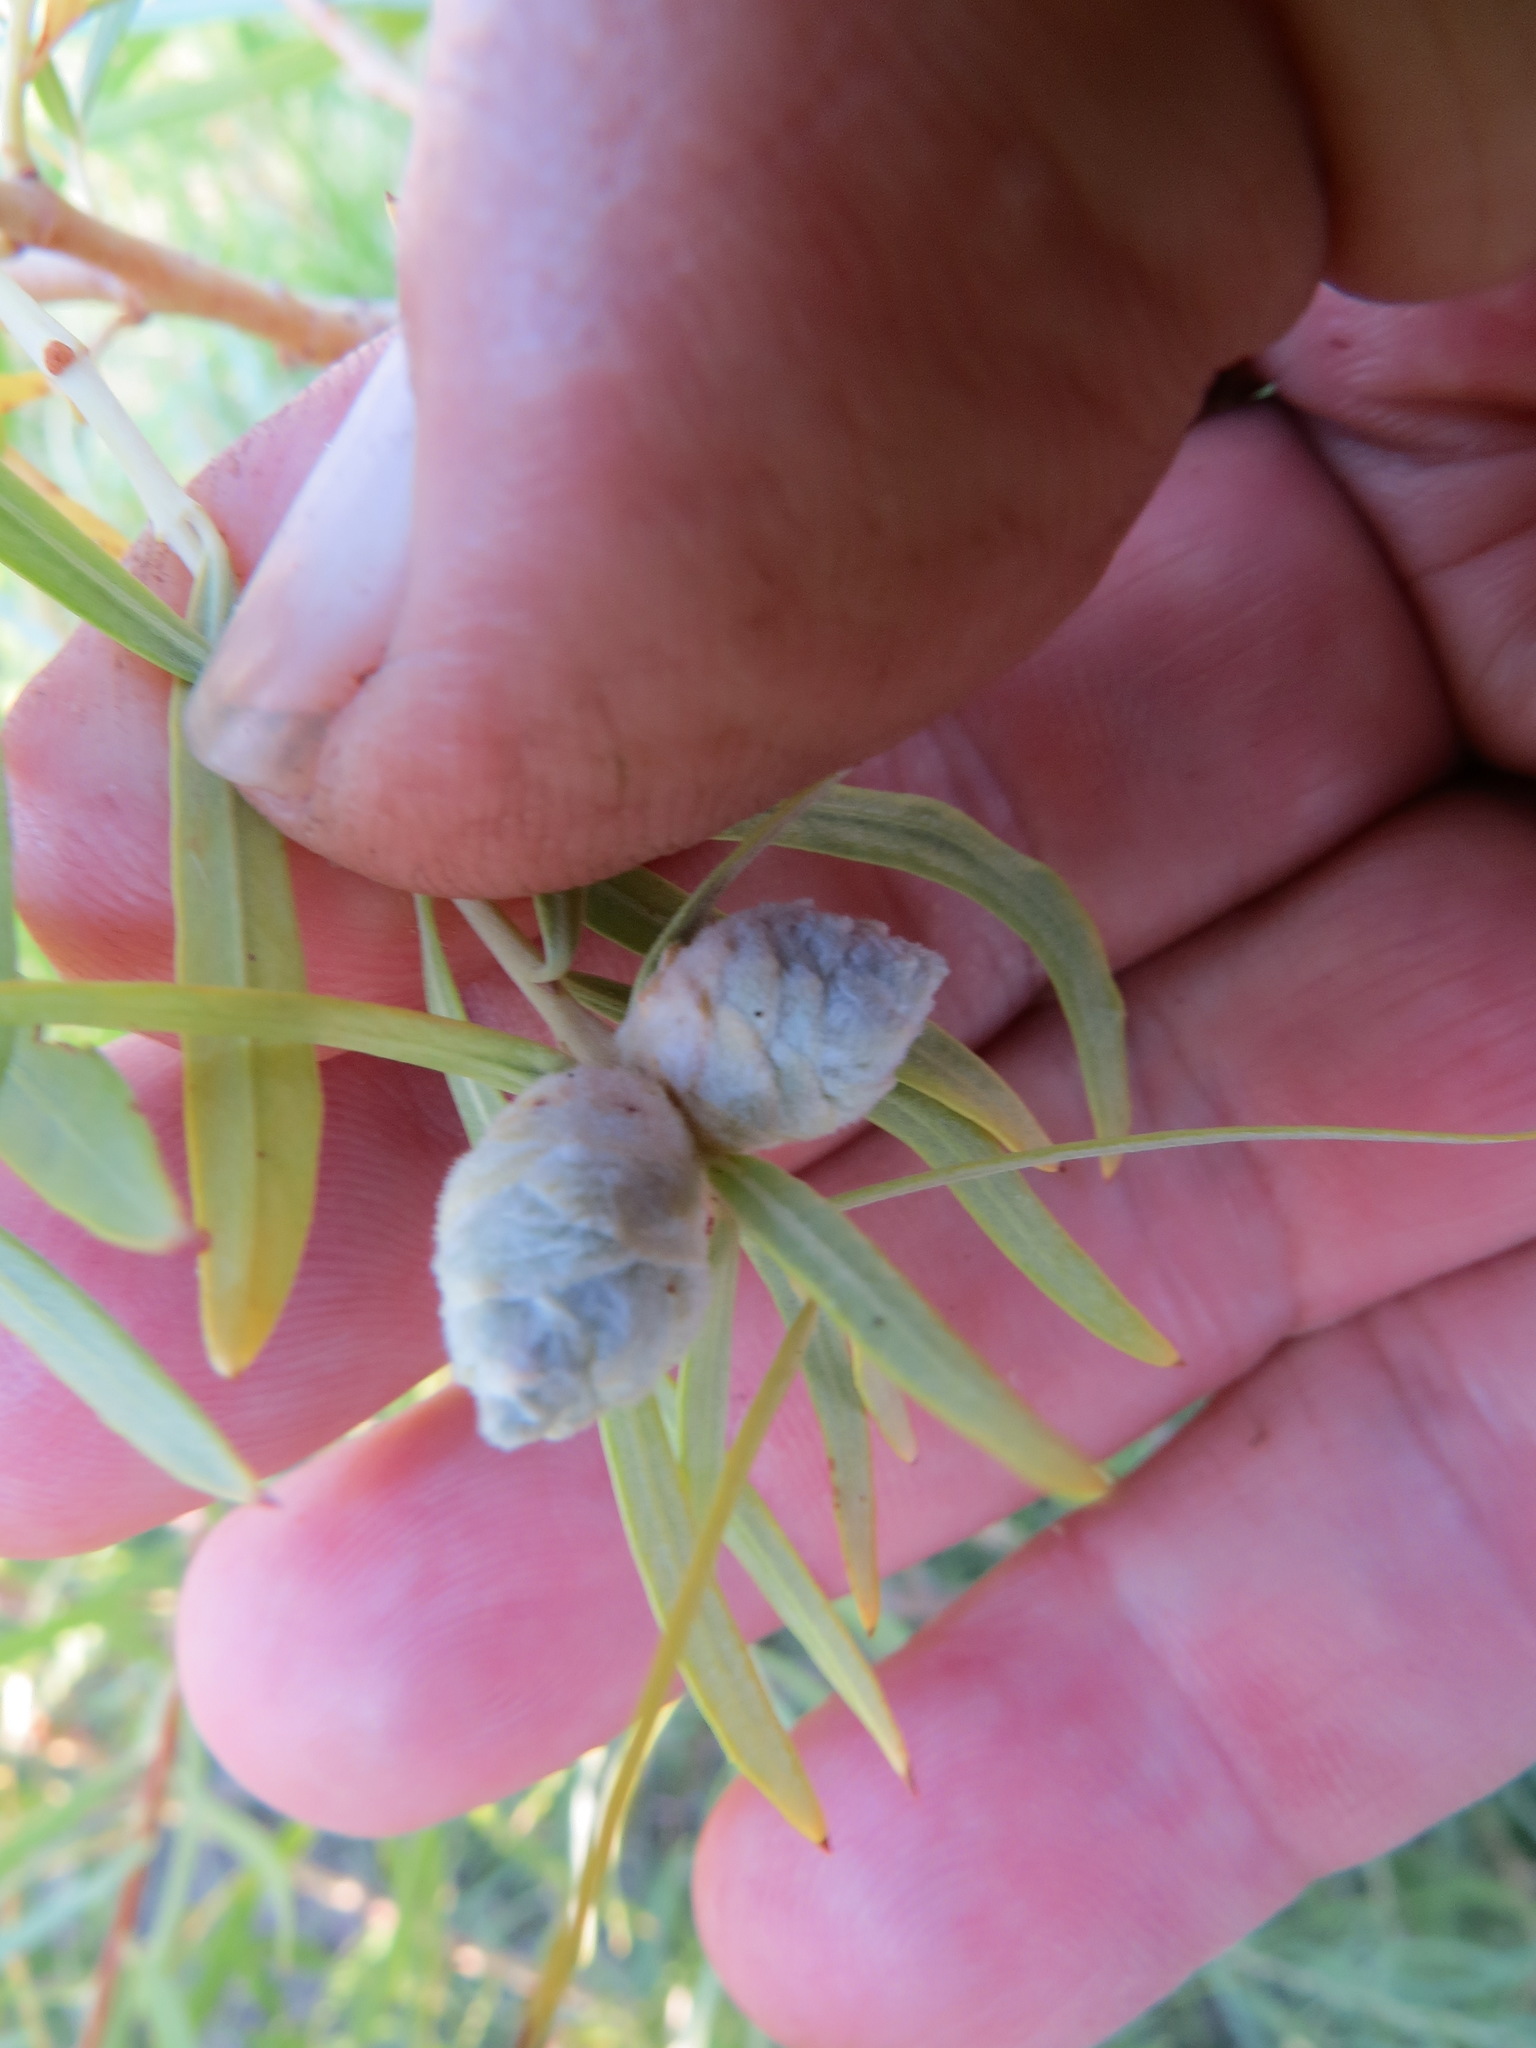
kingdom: Animalia
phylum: Arthropoda
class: Insecta
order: Diptera
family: Cecidomyiidae
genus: Rabdophaga
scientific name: Rabdophaga strobiloides
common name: Willow pinecone gall midge
